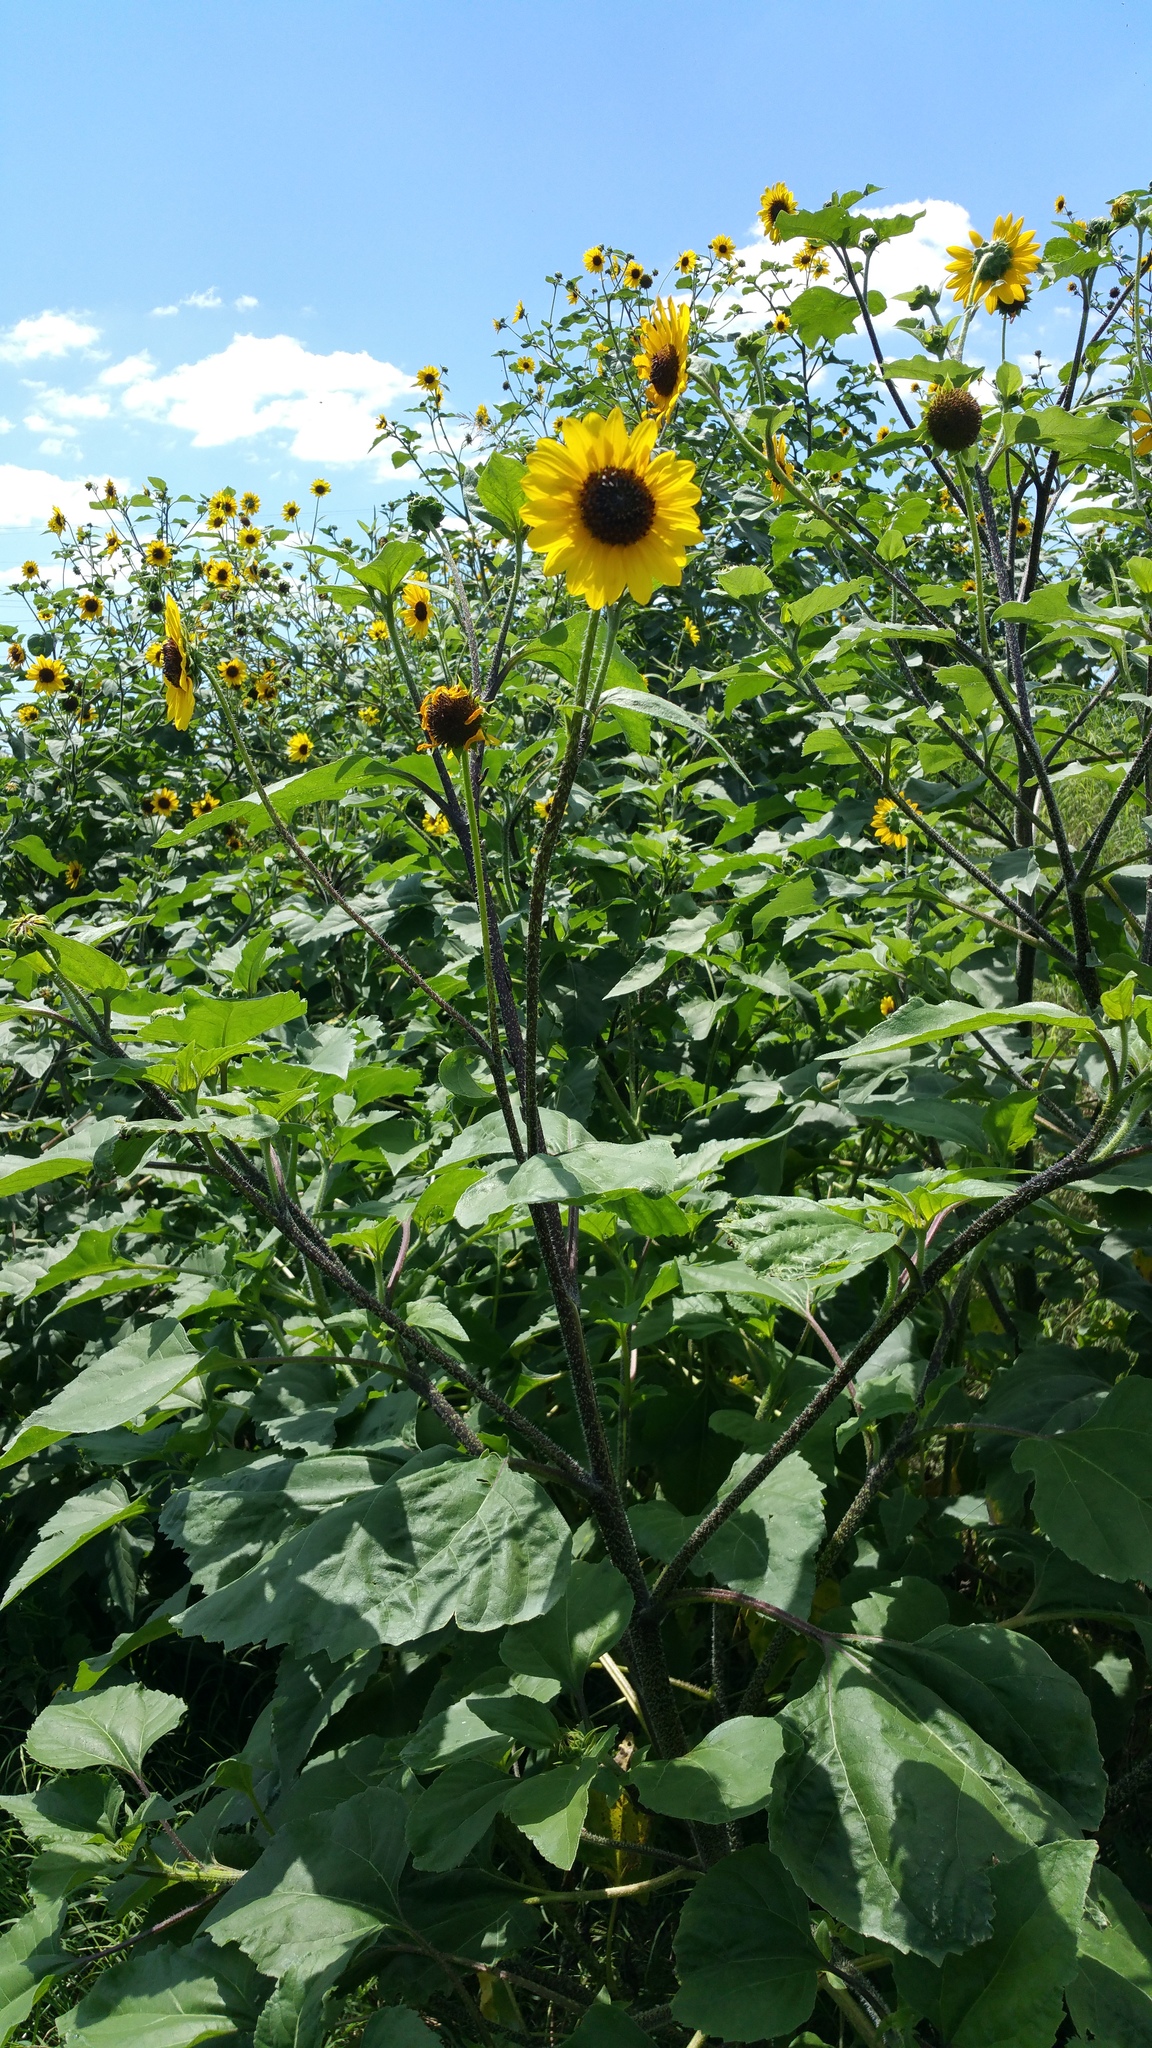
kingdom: Plantae
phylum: Tracheophyta
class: Magnoliopsida
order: Asterales
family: Asteraceae
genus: Helianthus
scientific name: Helianthus annuus
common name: Sunflower
